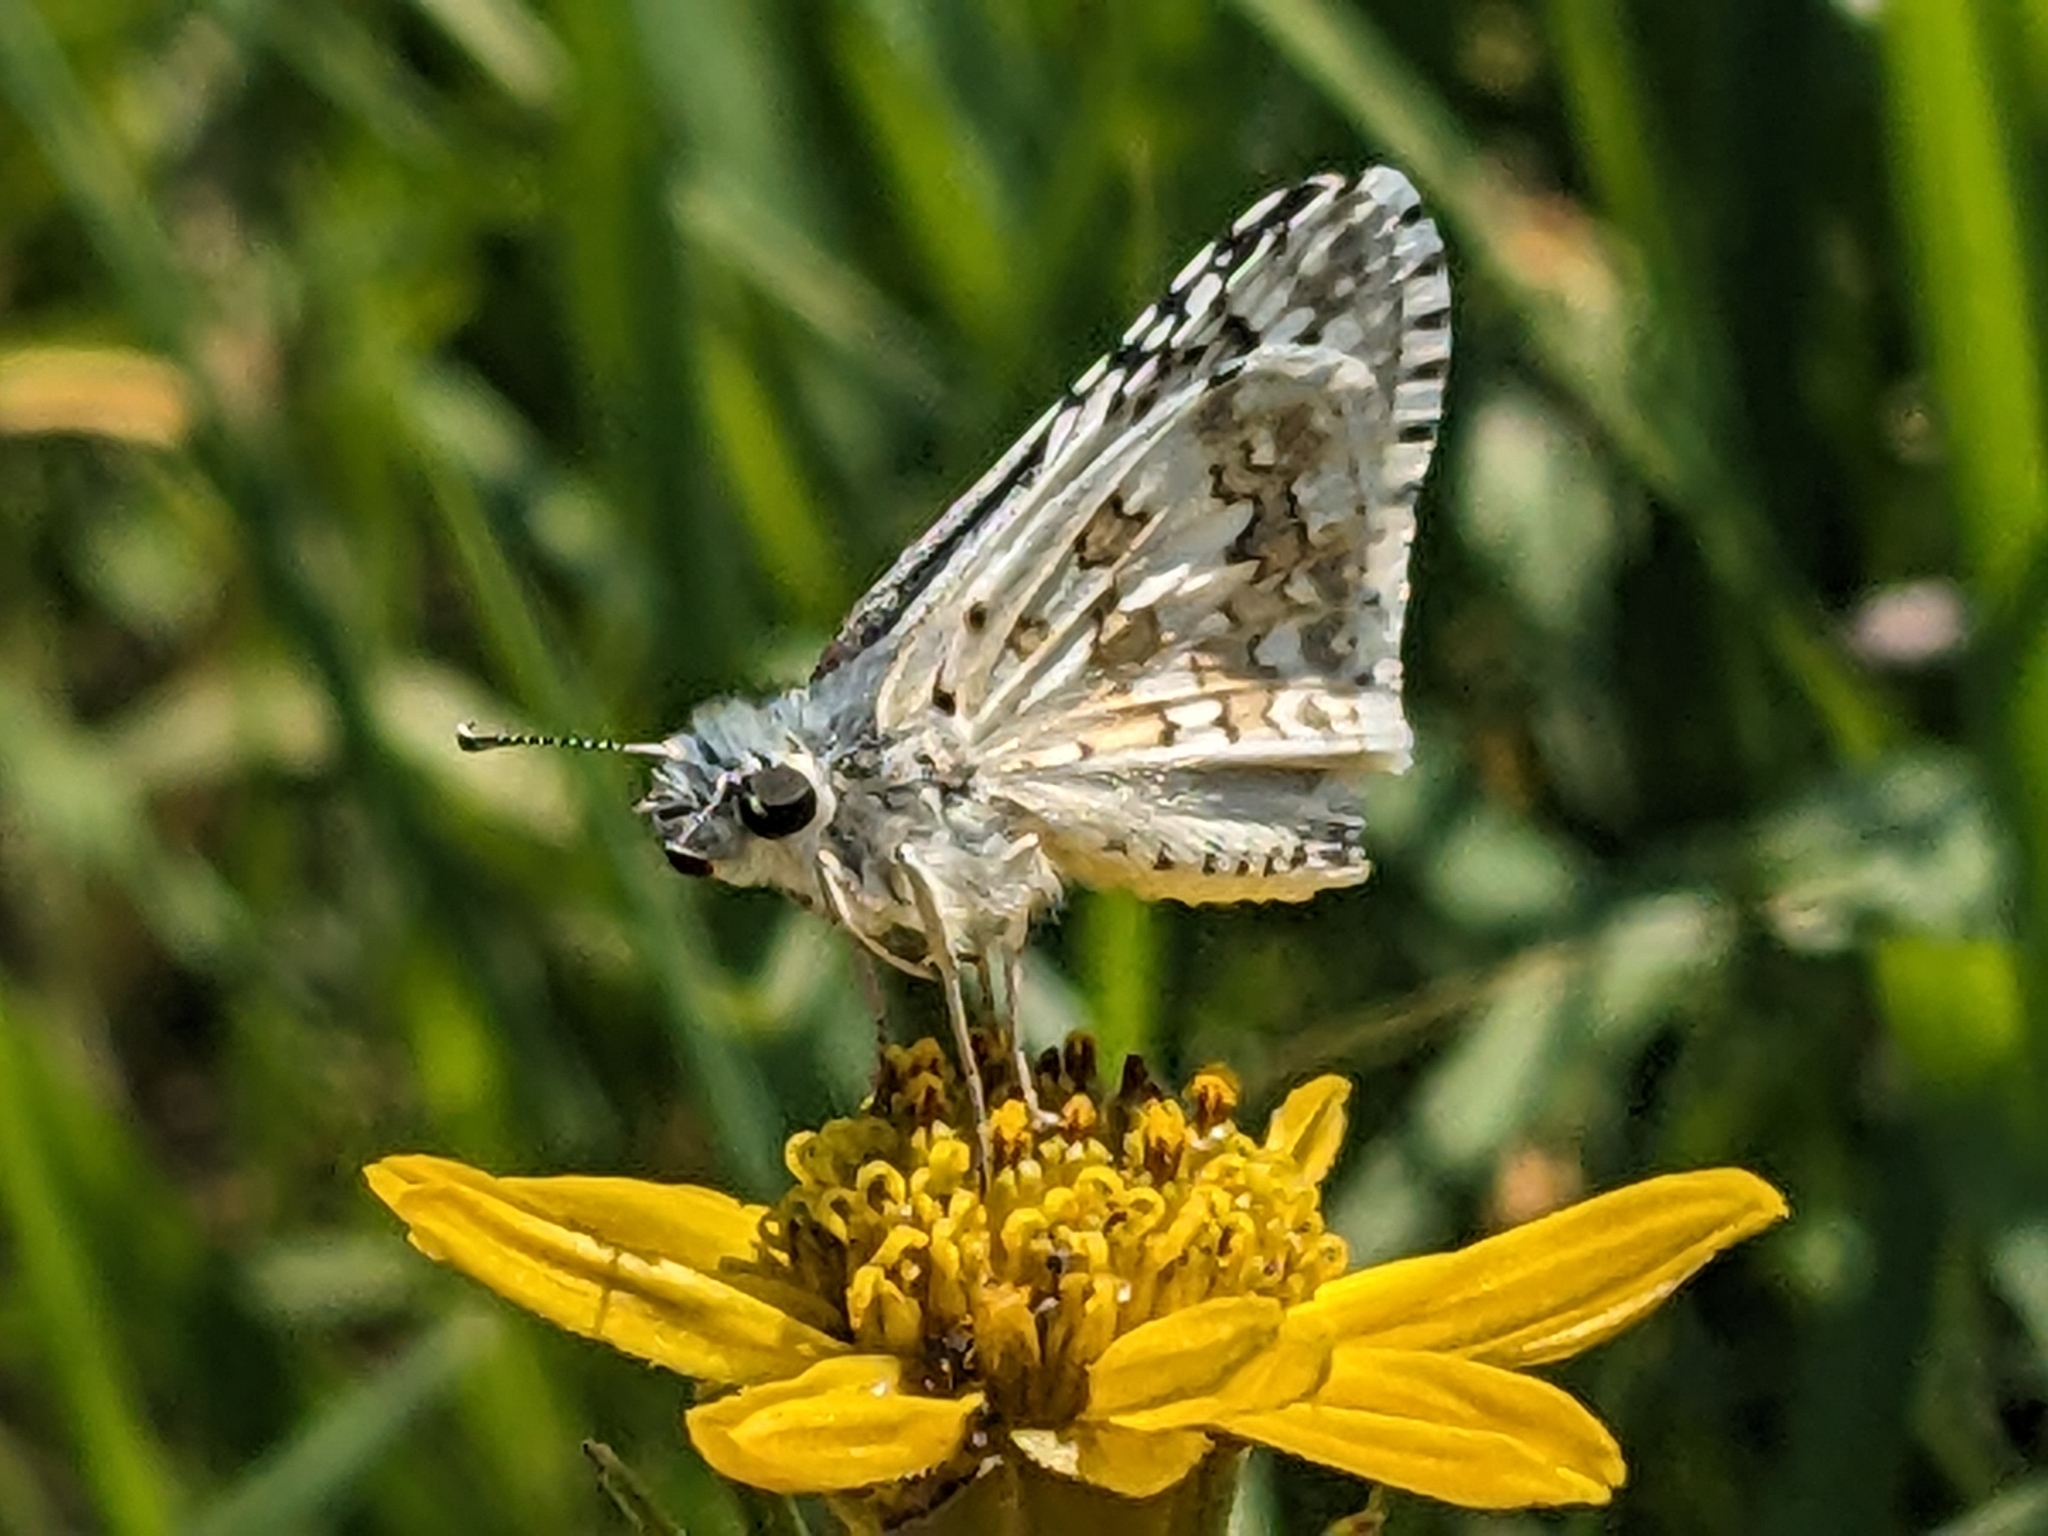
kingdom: Animalia
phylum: Arthropoda
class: Insecta
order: Lepidoptera
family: Hesperiidae
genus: Burnsius
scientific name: Burnsius communis
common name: Common checkered-skipper
